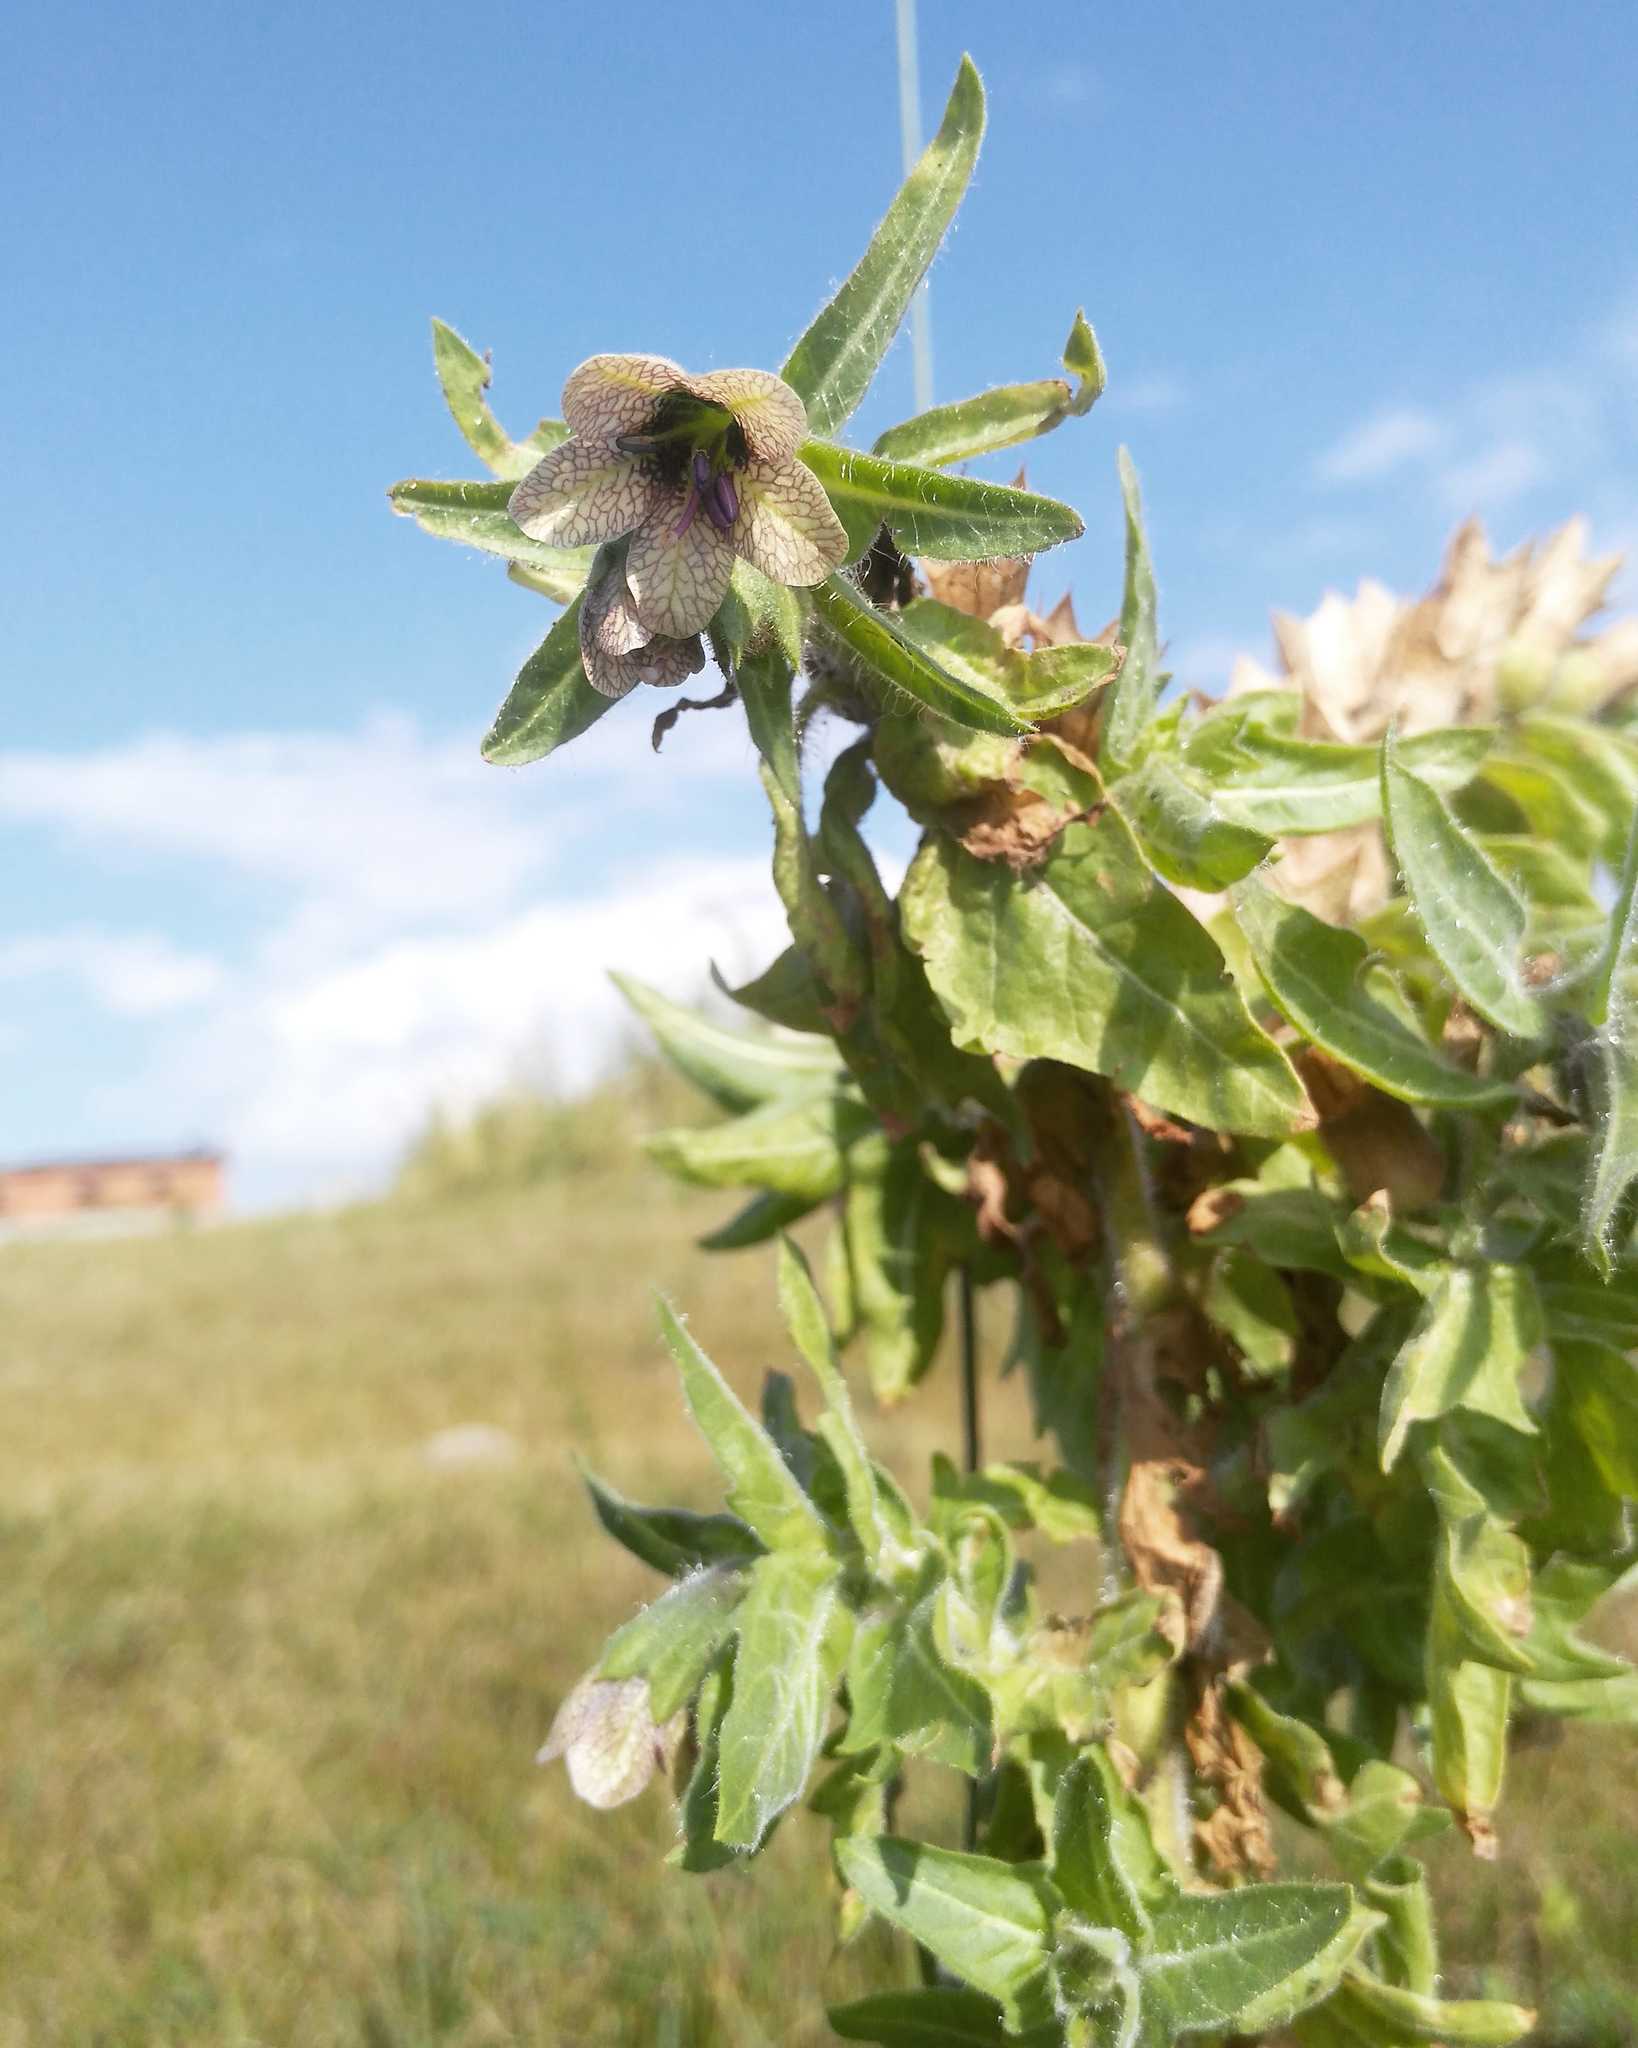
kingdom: Plantae
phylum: Tracheophyta
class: Magnoliopsida
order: Solanales
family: Solanaceae
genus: Hyoscyamus
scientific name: Hyoscyamus niger
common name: Henbane
